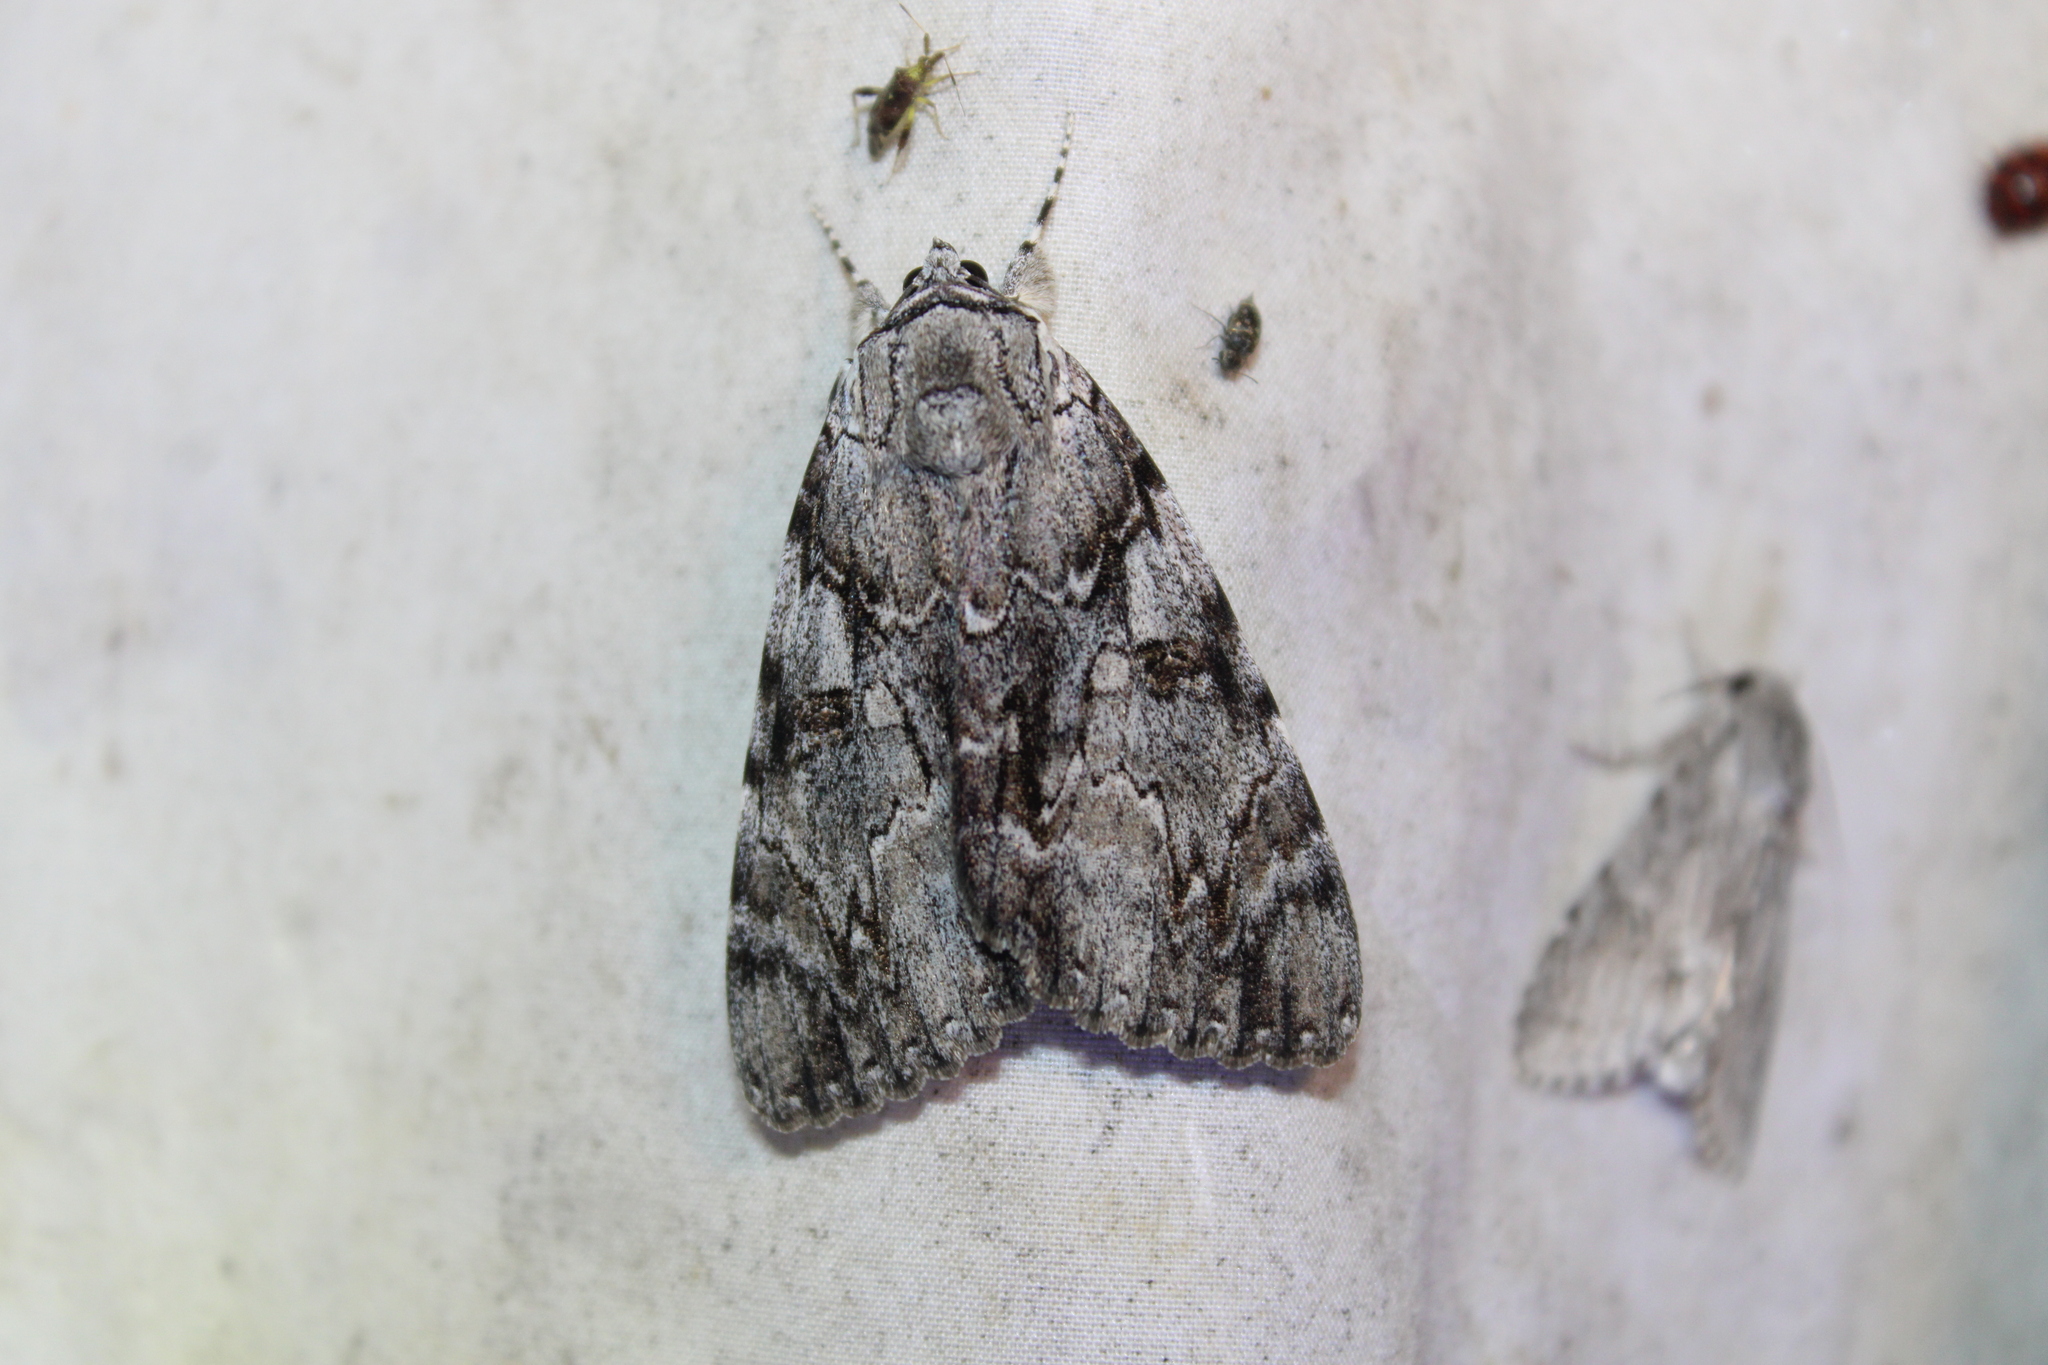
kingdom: Animalia
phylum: Arthropoda
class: Insecta
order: Lepidoptera
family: Erebidae
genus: Catocala
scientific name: Catocala dejecta
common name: Dejected underwing
